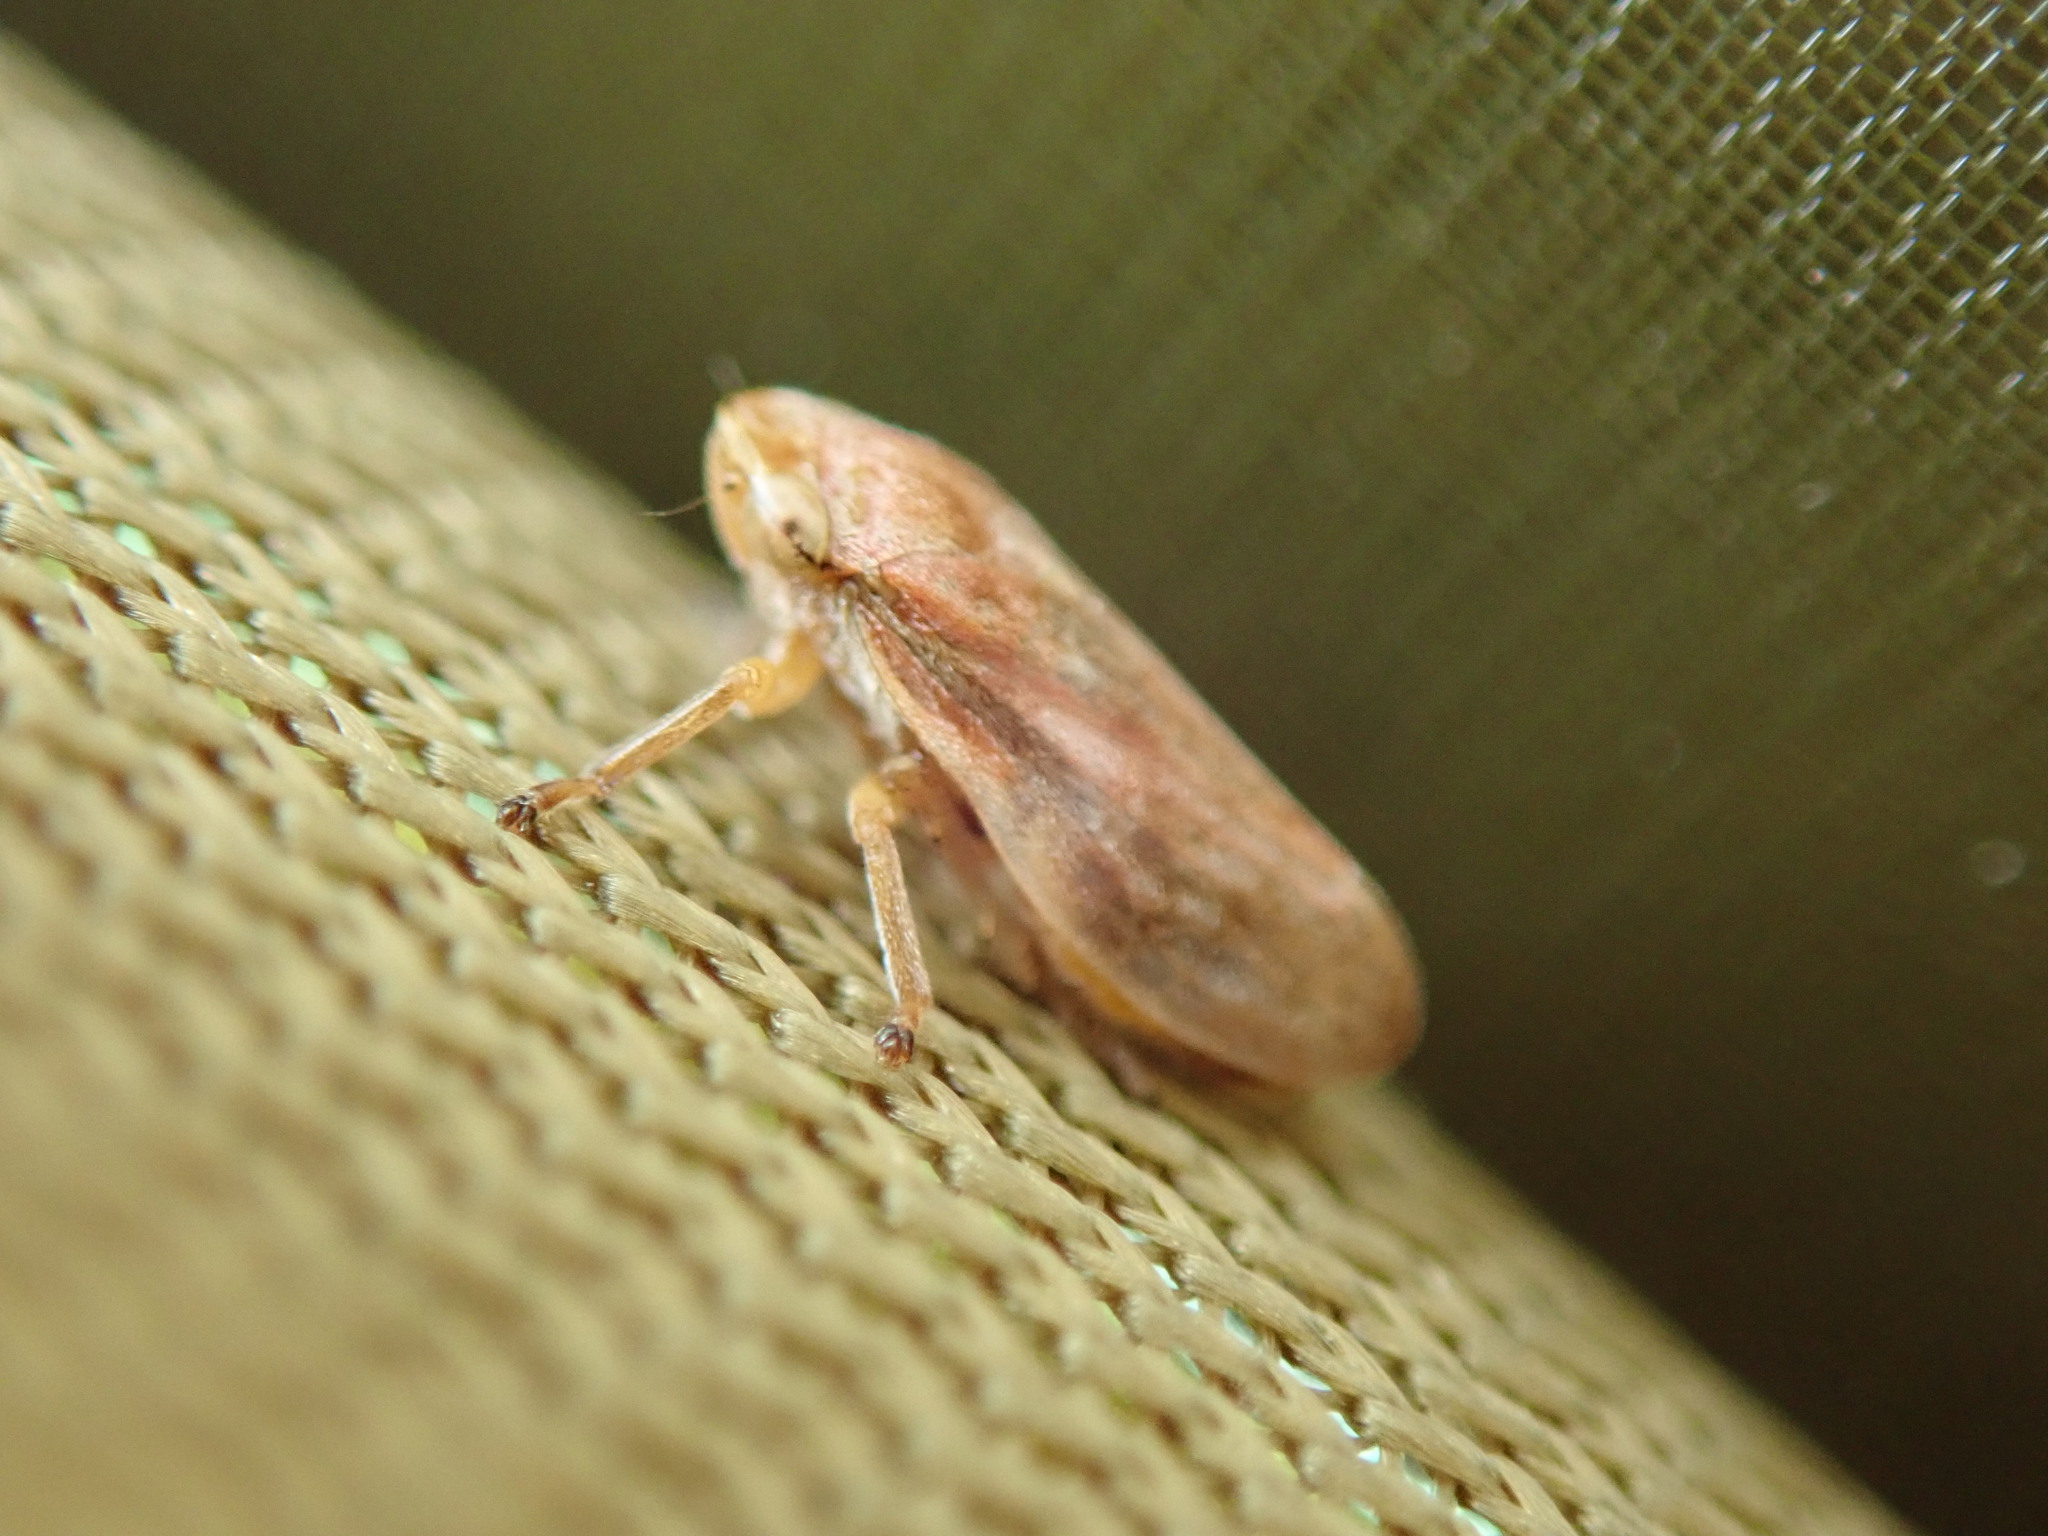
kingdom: Animalia
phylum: Arthropoda
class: Insecta
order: Hemiptera
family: Aphrophoridae
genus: Philaenus
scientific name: Philaenus spumarius
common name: Meadow spittlebug
